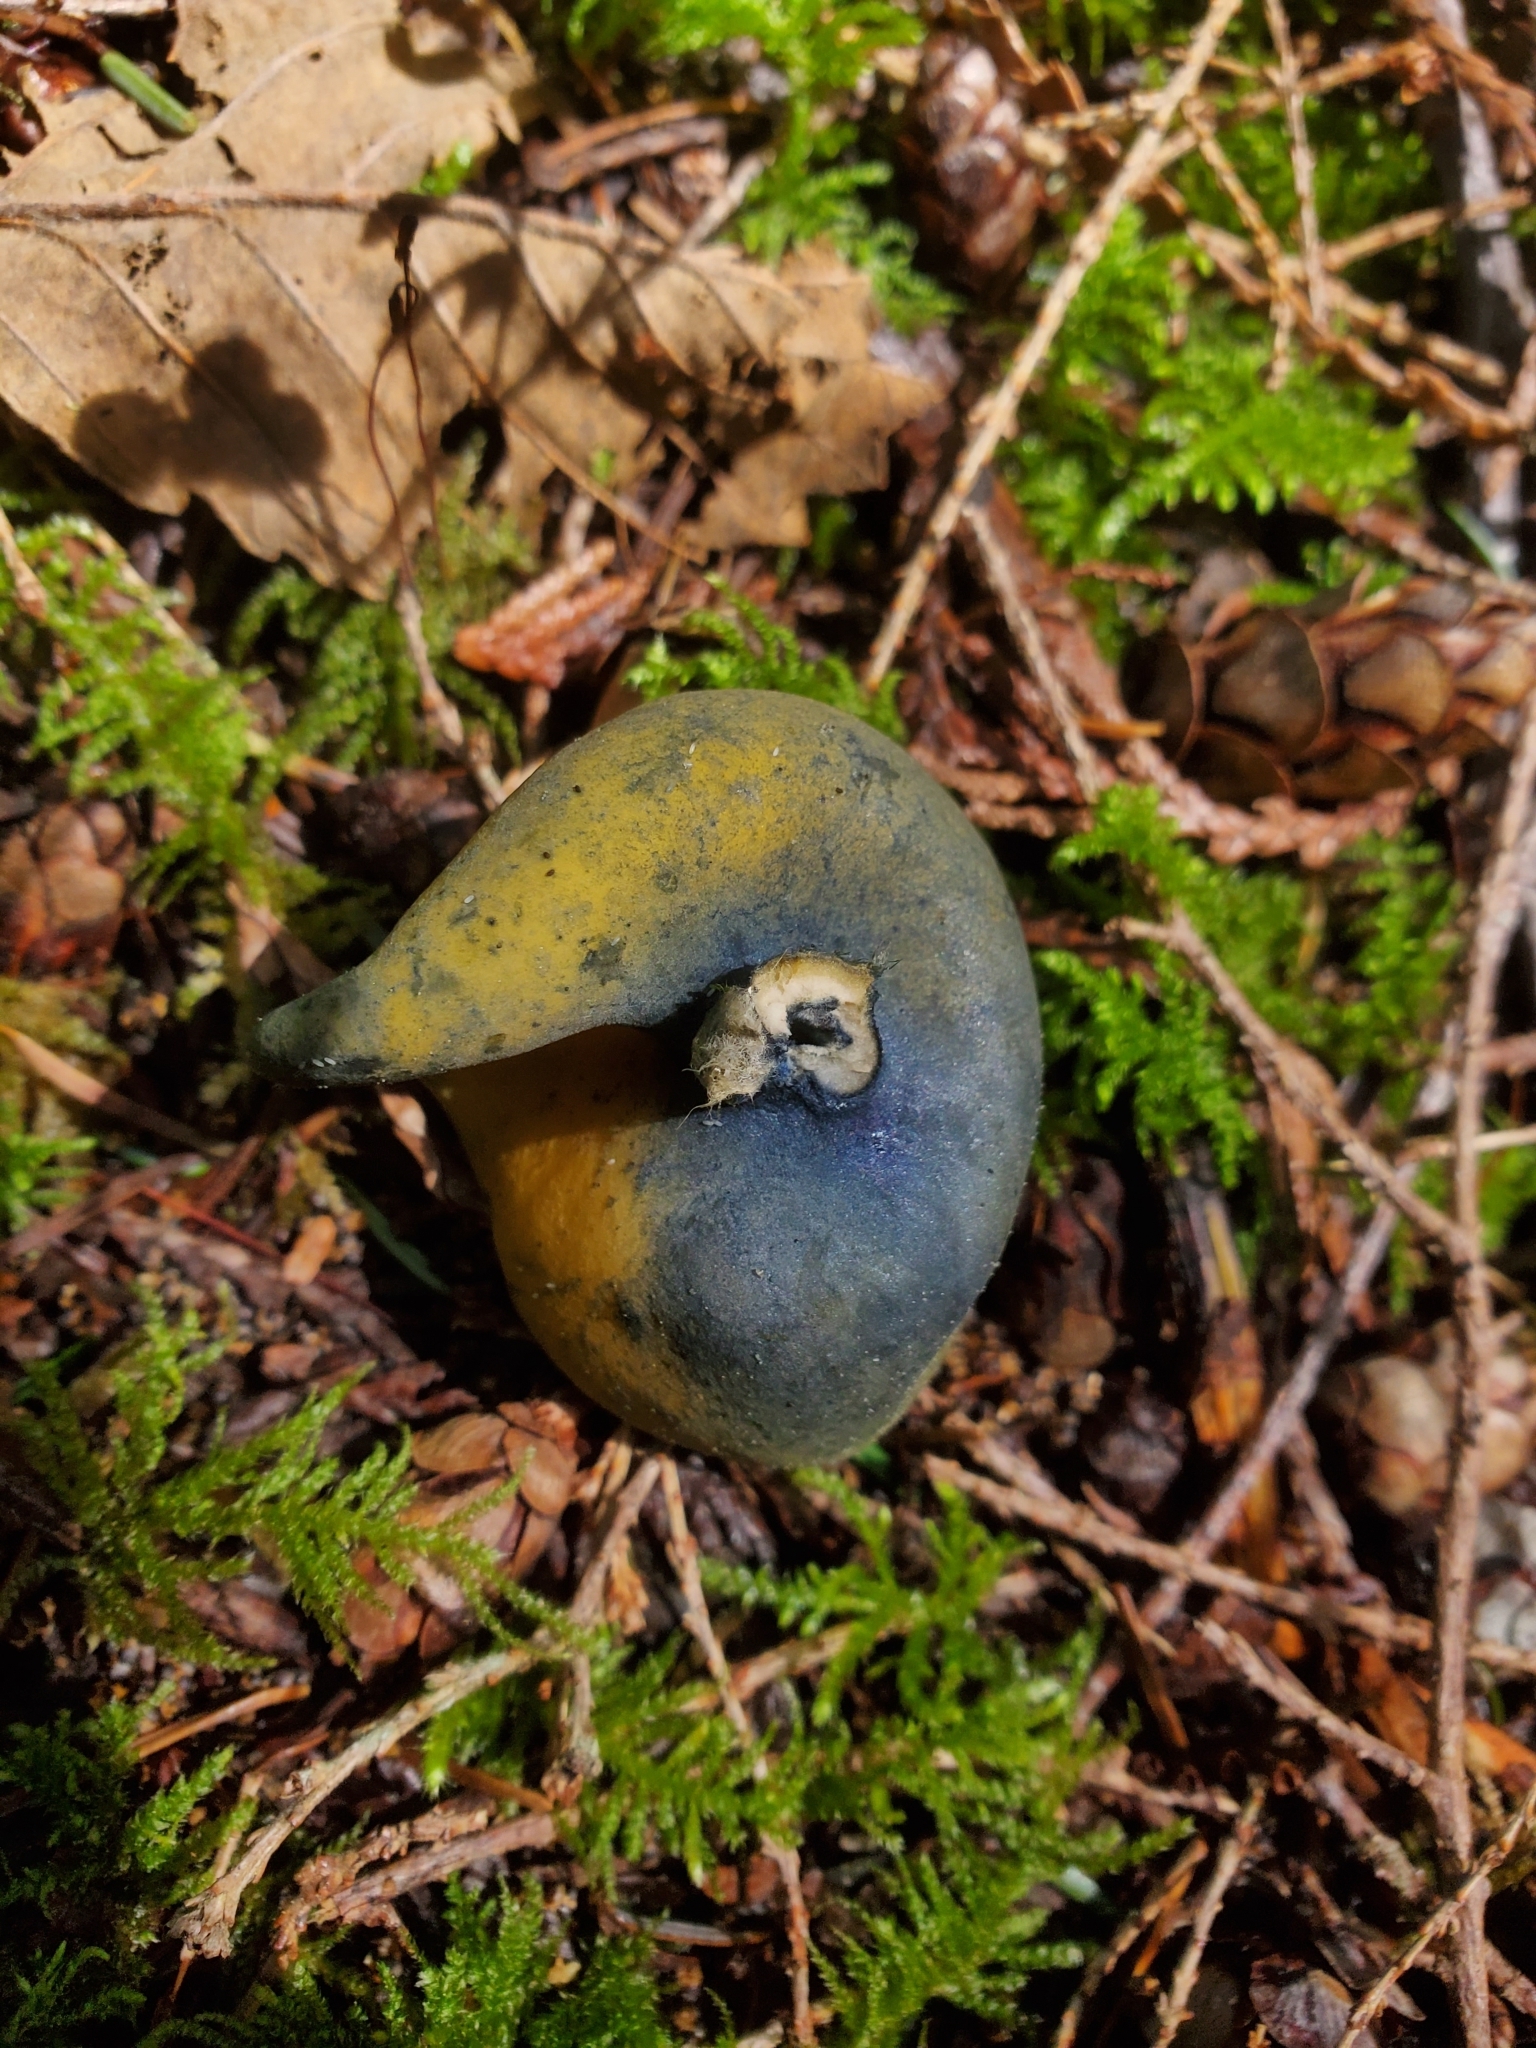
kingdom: Fungi
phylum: Ascomycota
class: Pezizomycetes
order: Pezizales
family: Caloscyphaceae
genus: Caloscypha
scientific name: Caloscypha fulgens
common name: Golden cup
